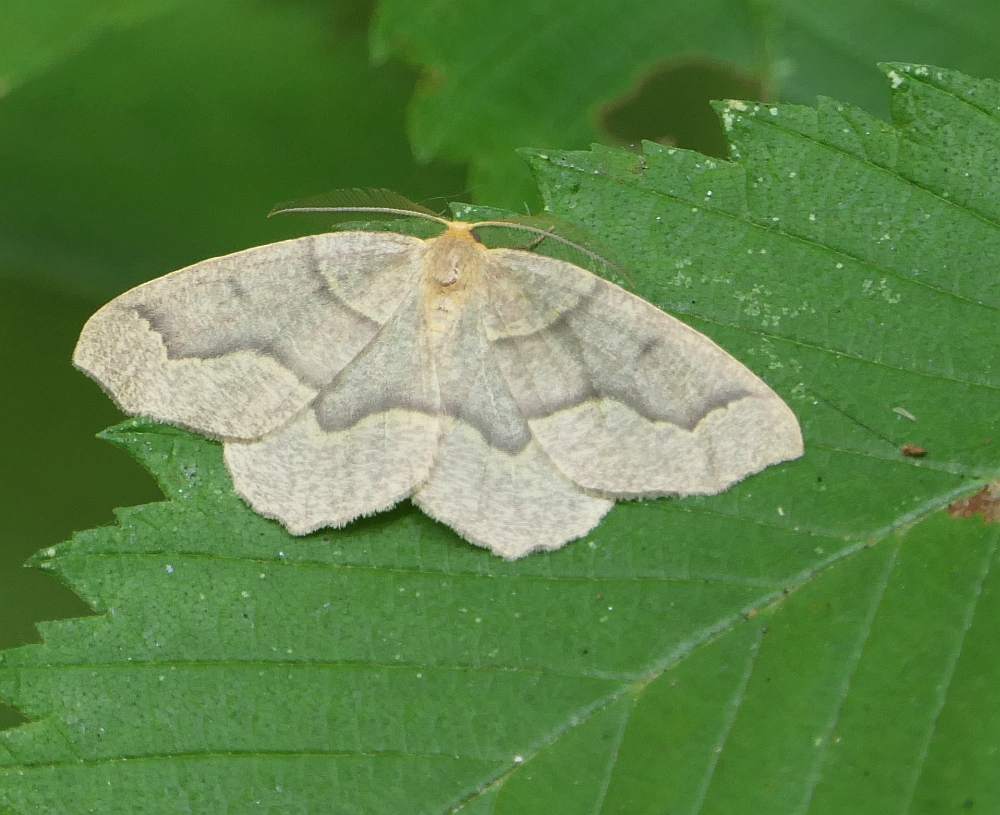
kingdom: Animalia
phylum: Arthropoda
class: Insecta
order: Lepidoptera
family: Geometridae
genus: Lambdina
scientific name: Lambdina fiscellaria
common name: Hemlock looper
